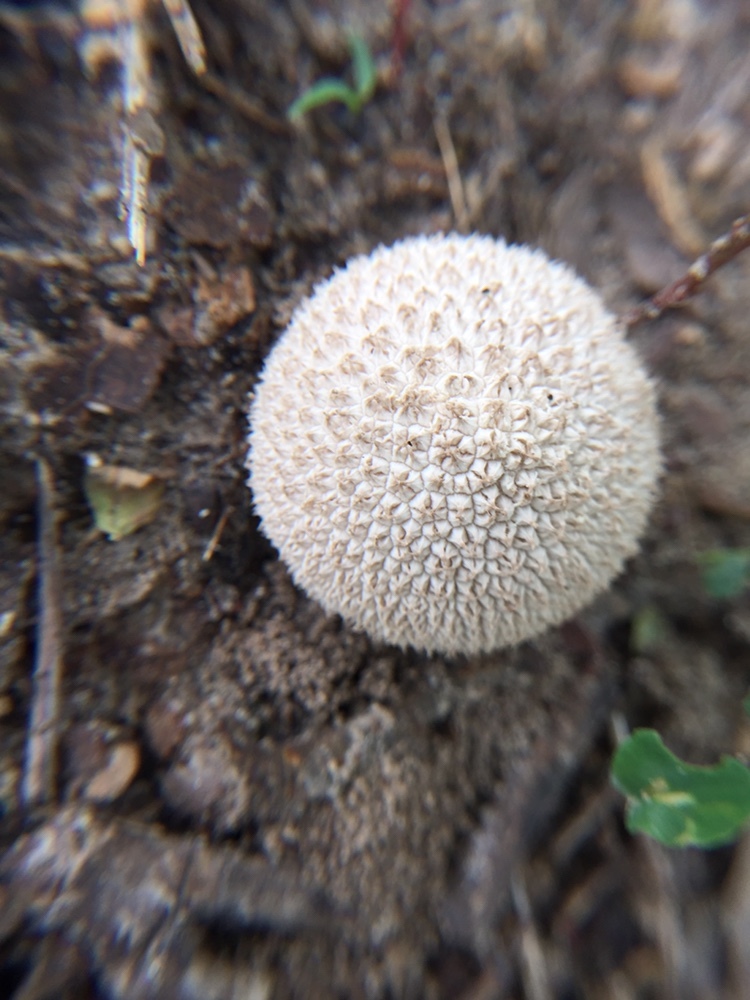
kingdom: Fungi
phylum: Basidiomycota
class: Agaricomycetes
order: Agaricales
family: Agaricaceae
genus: Lycoperdon
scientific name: Lycoperdon marginatum
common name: Peeling puffball
